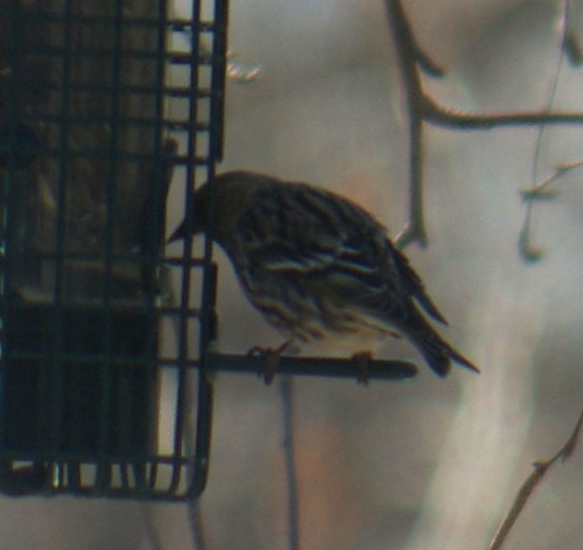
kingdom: Animalia
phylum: Chordata
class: Aves
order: Passeriformes
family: Fringillidae
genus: Spinus
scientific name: Spinus pinus
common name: Pine siskin
